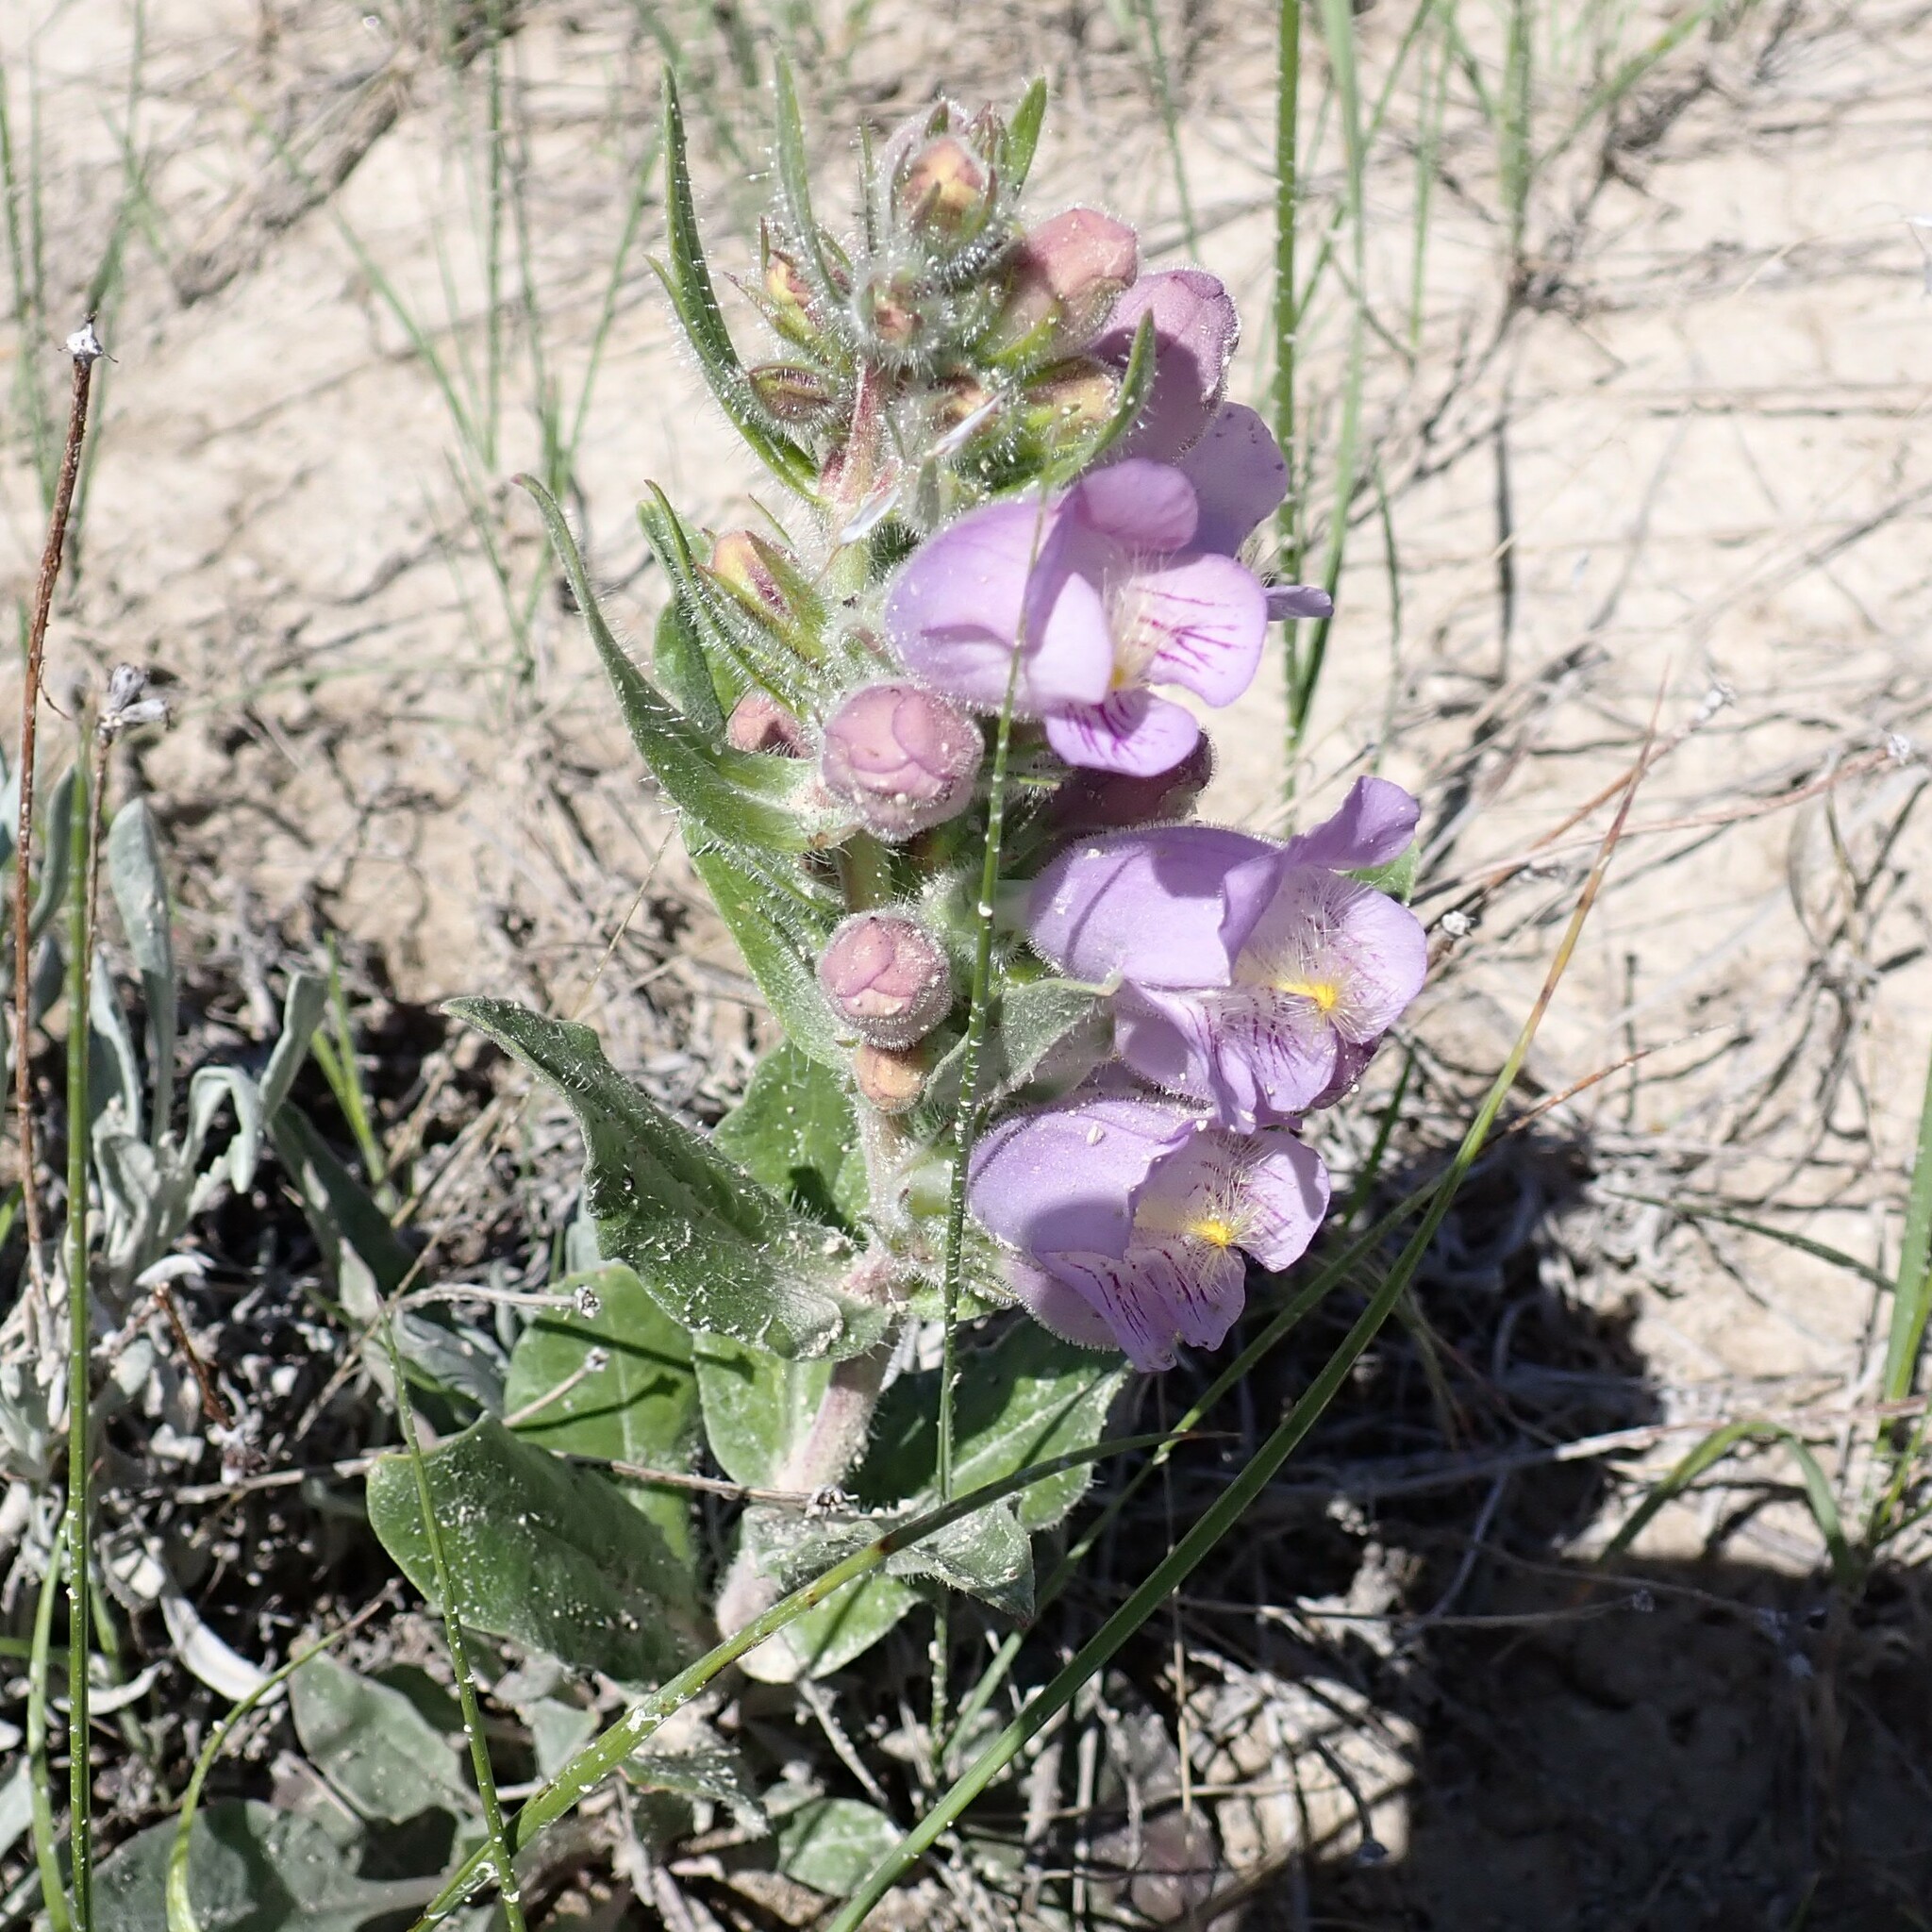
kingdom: Plantae
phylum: Tracheophyta
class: Magnoliopsida
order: Lamiales
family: Plantaginaceae
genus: Penstemon
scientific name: Penstemon eriantherus
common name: Crested beardtongue
